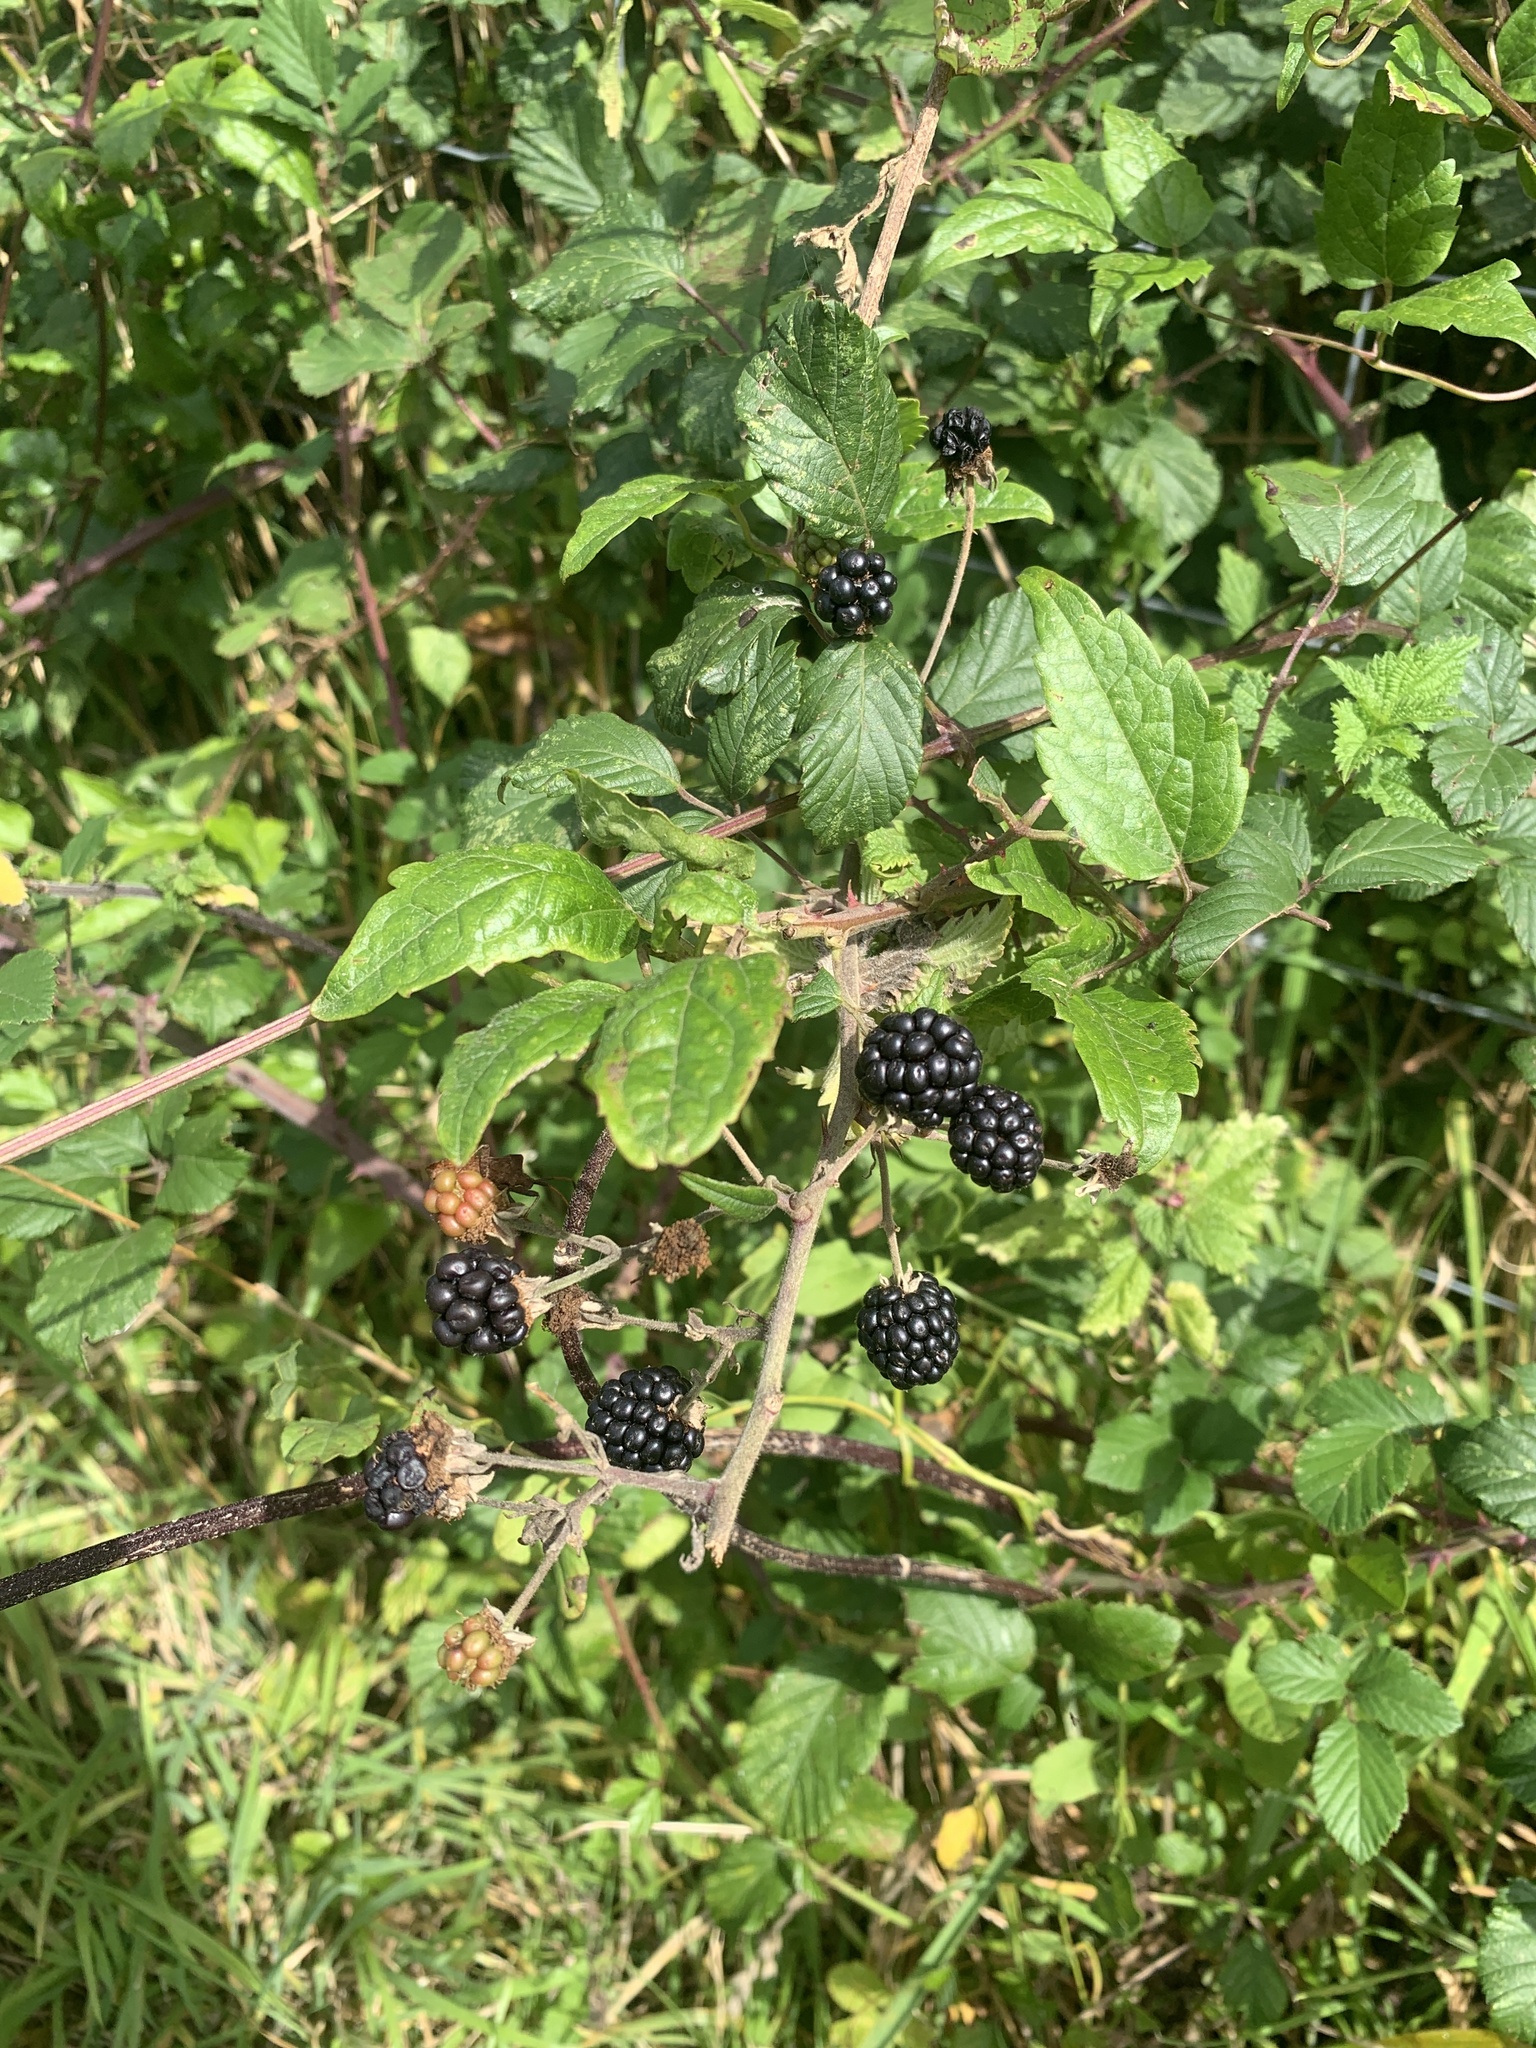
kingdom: Plantae
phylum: Tracheophyta
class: Magnoliopsida
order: Rosales
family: Rosaceae
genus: Rubus
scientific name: Rubus fruticosus
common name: Blackberry, bramble
